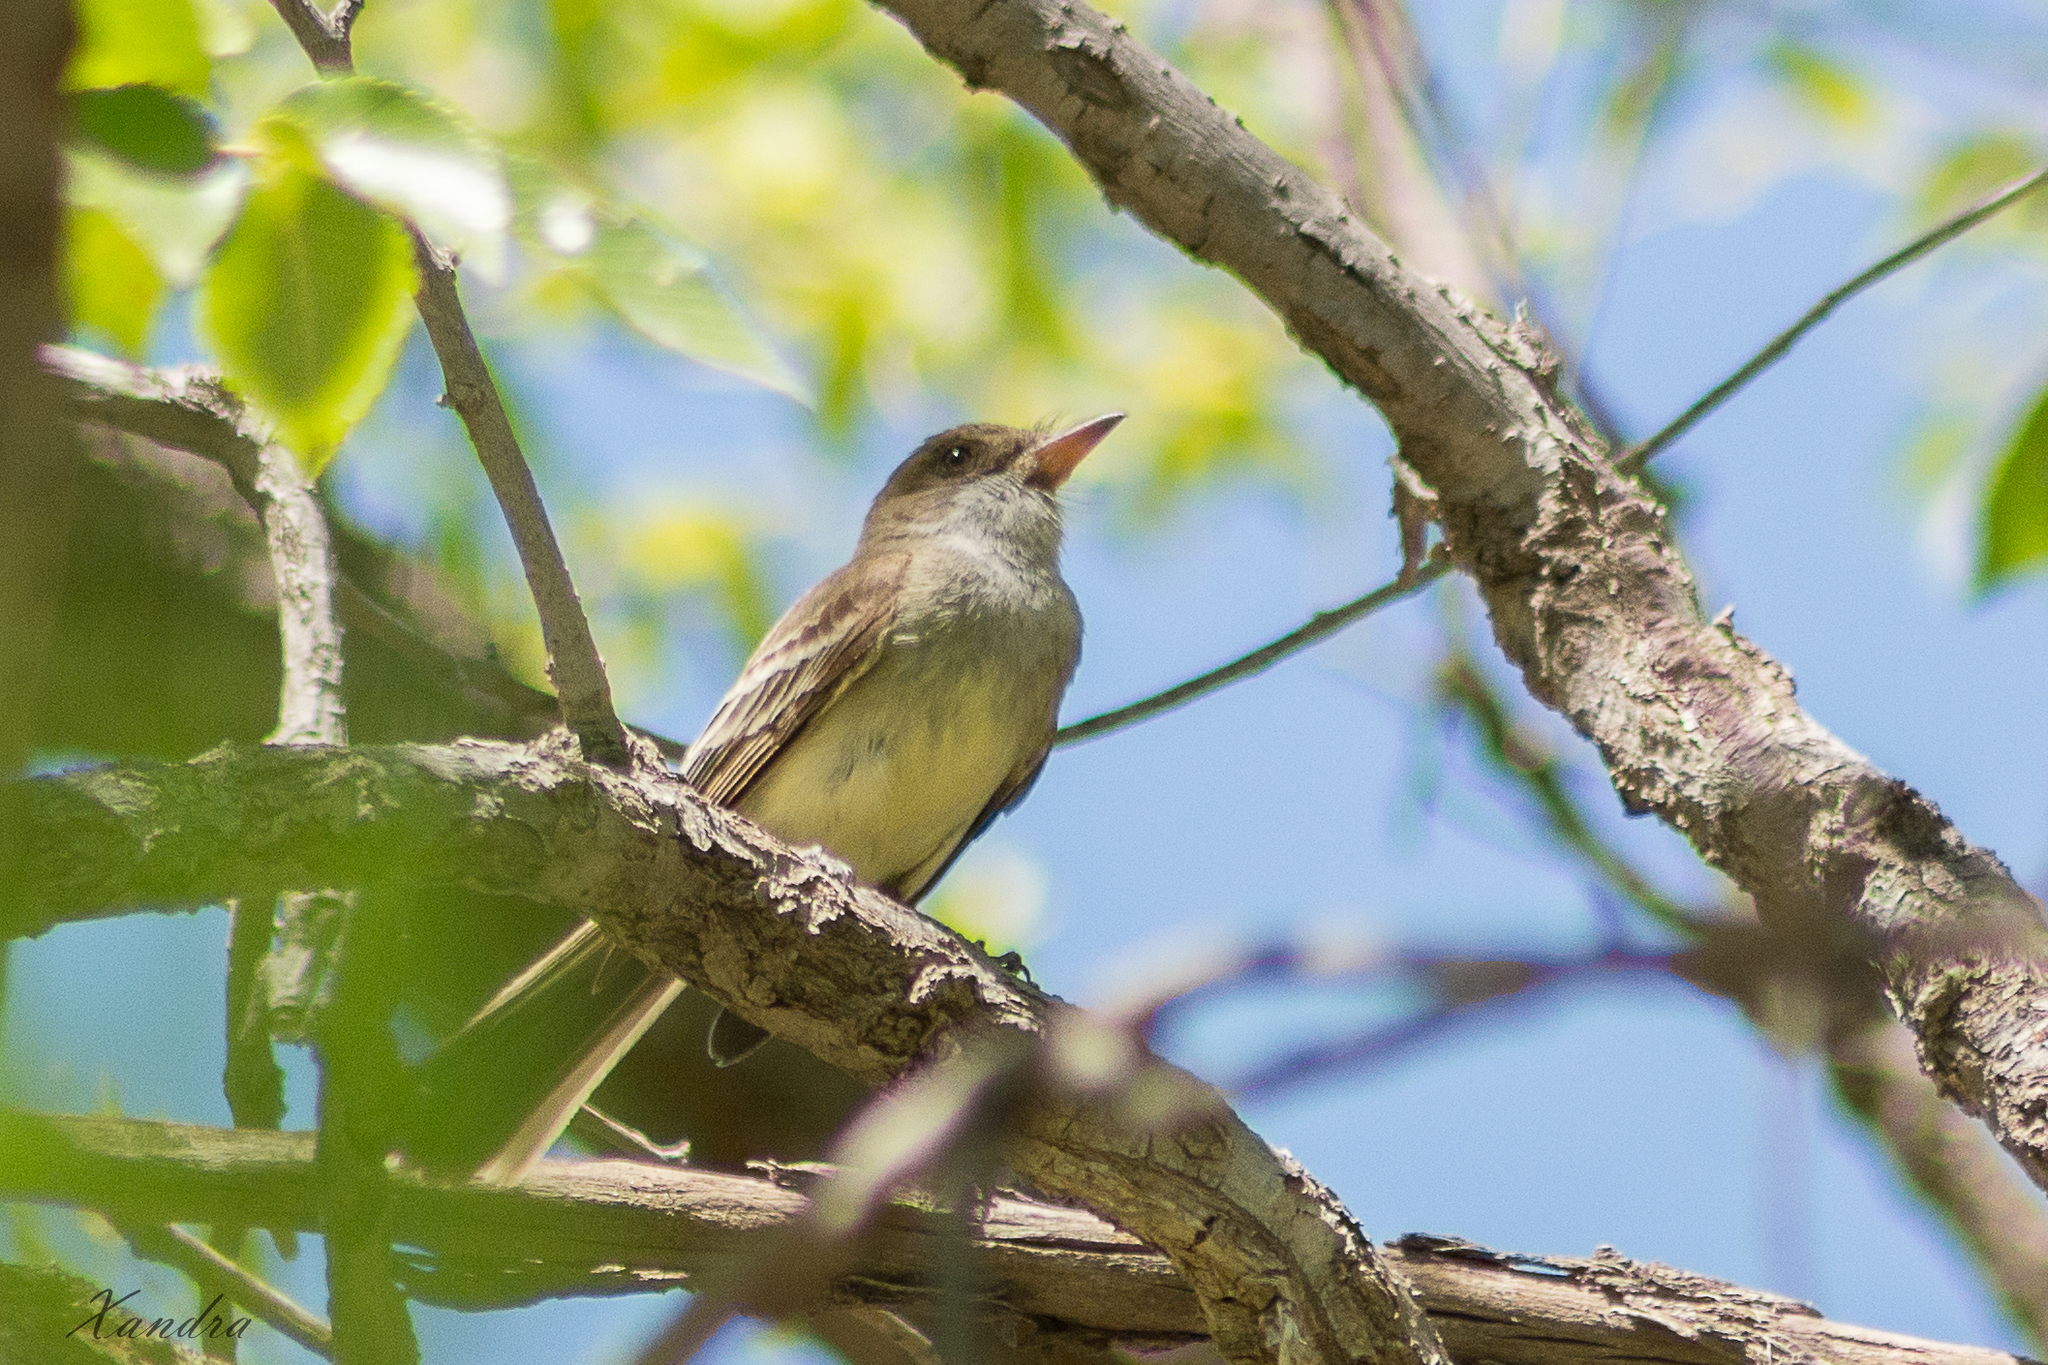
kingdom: Animalia
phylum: Chordata
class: Aves
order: Passeriformes
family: Tyrannidae
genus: Myiarchus
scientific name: Myiarchus swainsoni
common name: Swainson's flycatcher
